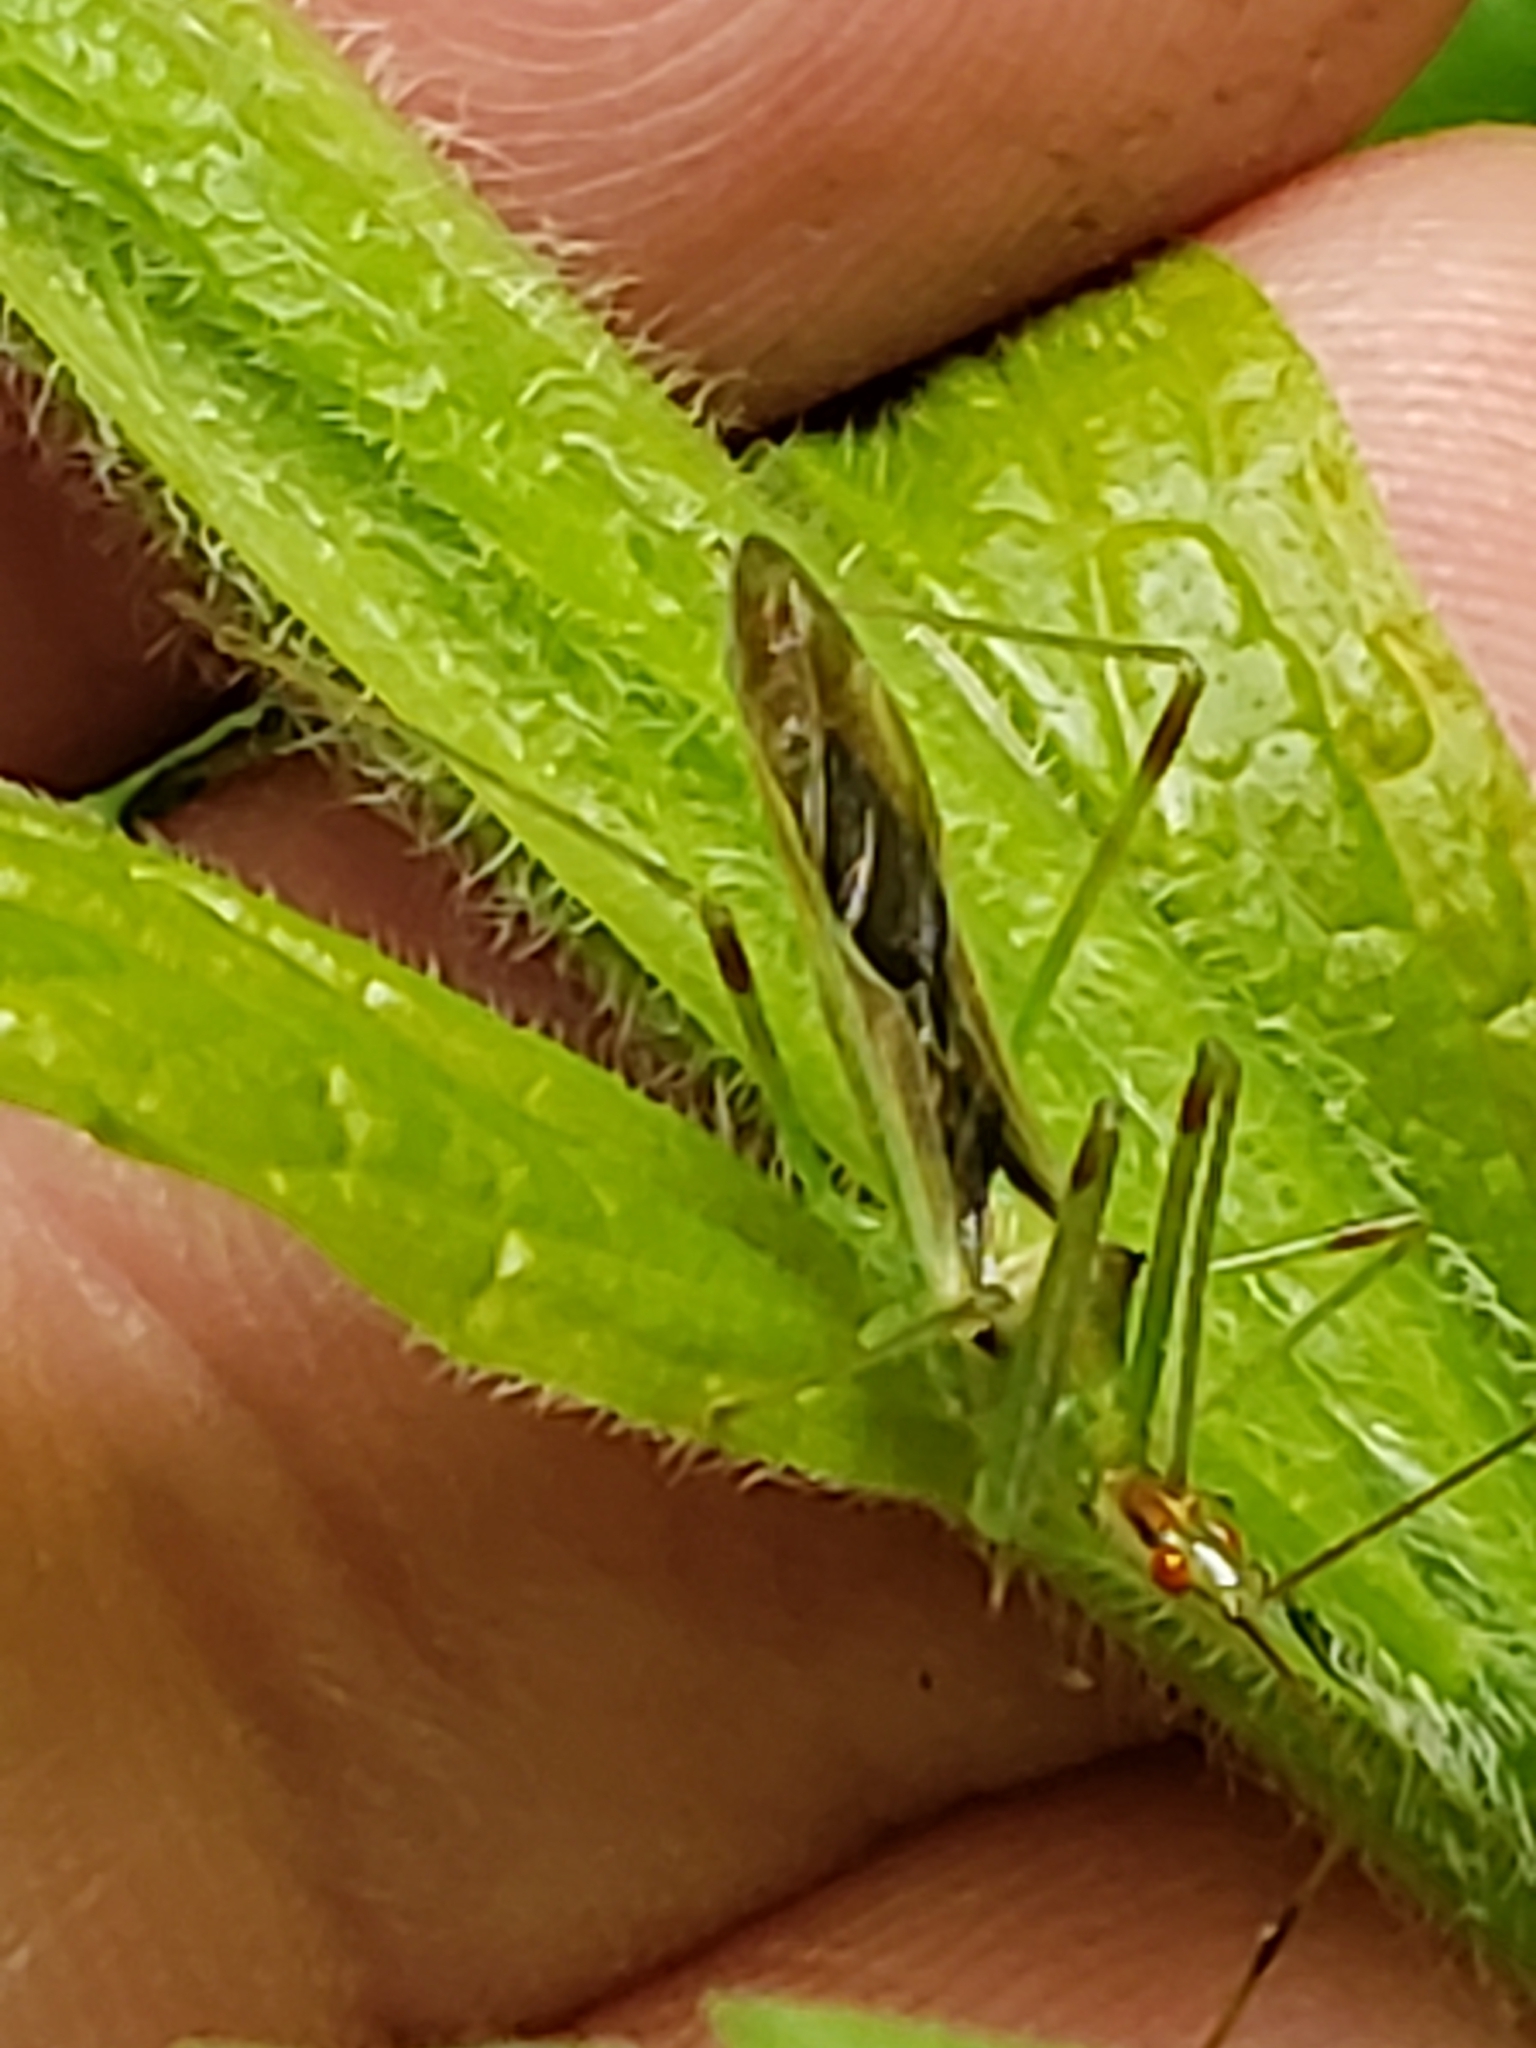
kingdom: Animalia
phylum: Arthropoda
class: Insecta
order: Hemiptera
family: Reduviidae
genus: Zelus
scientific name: Zelus luridus
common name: Pale green assassin bug
